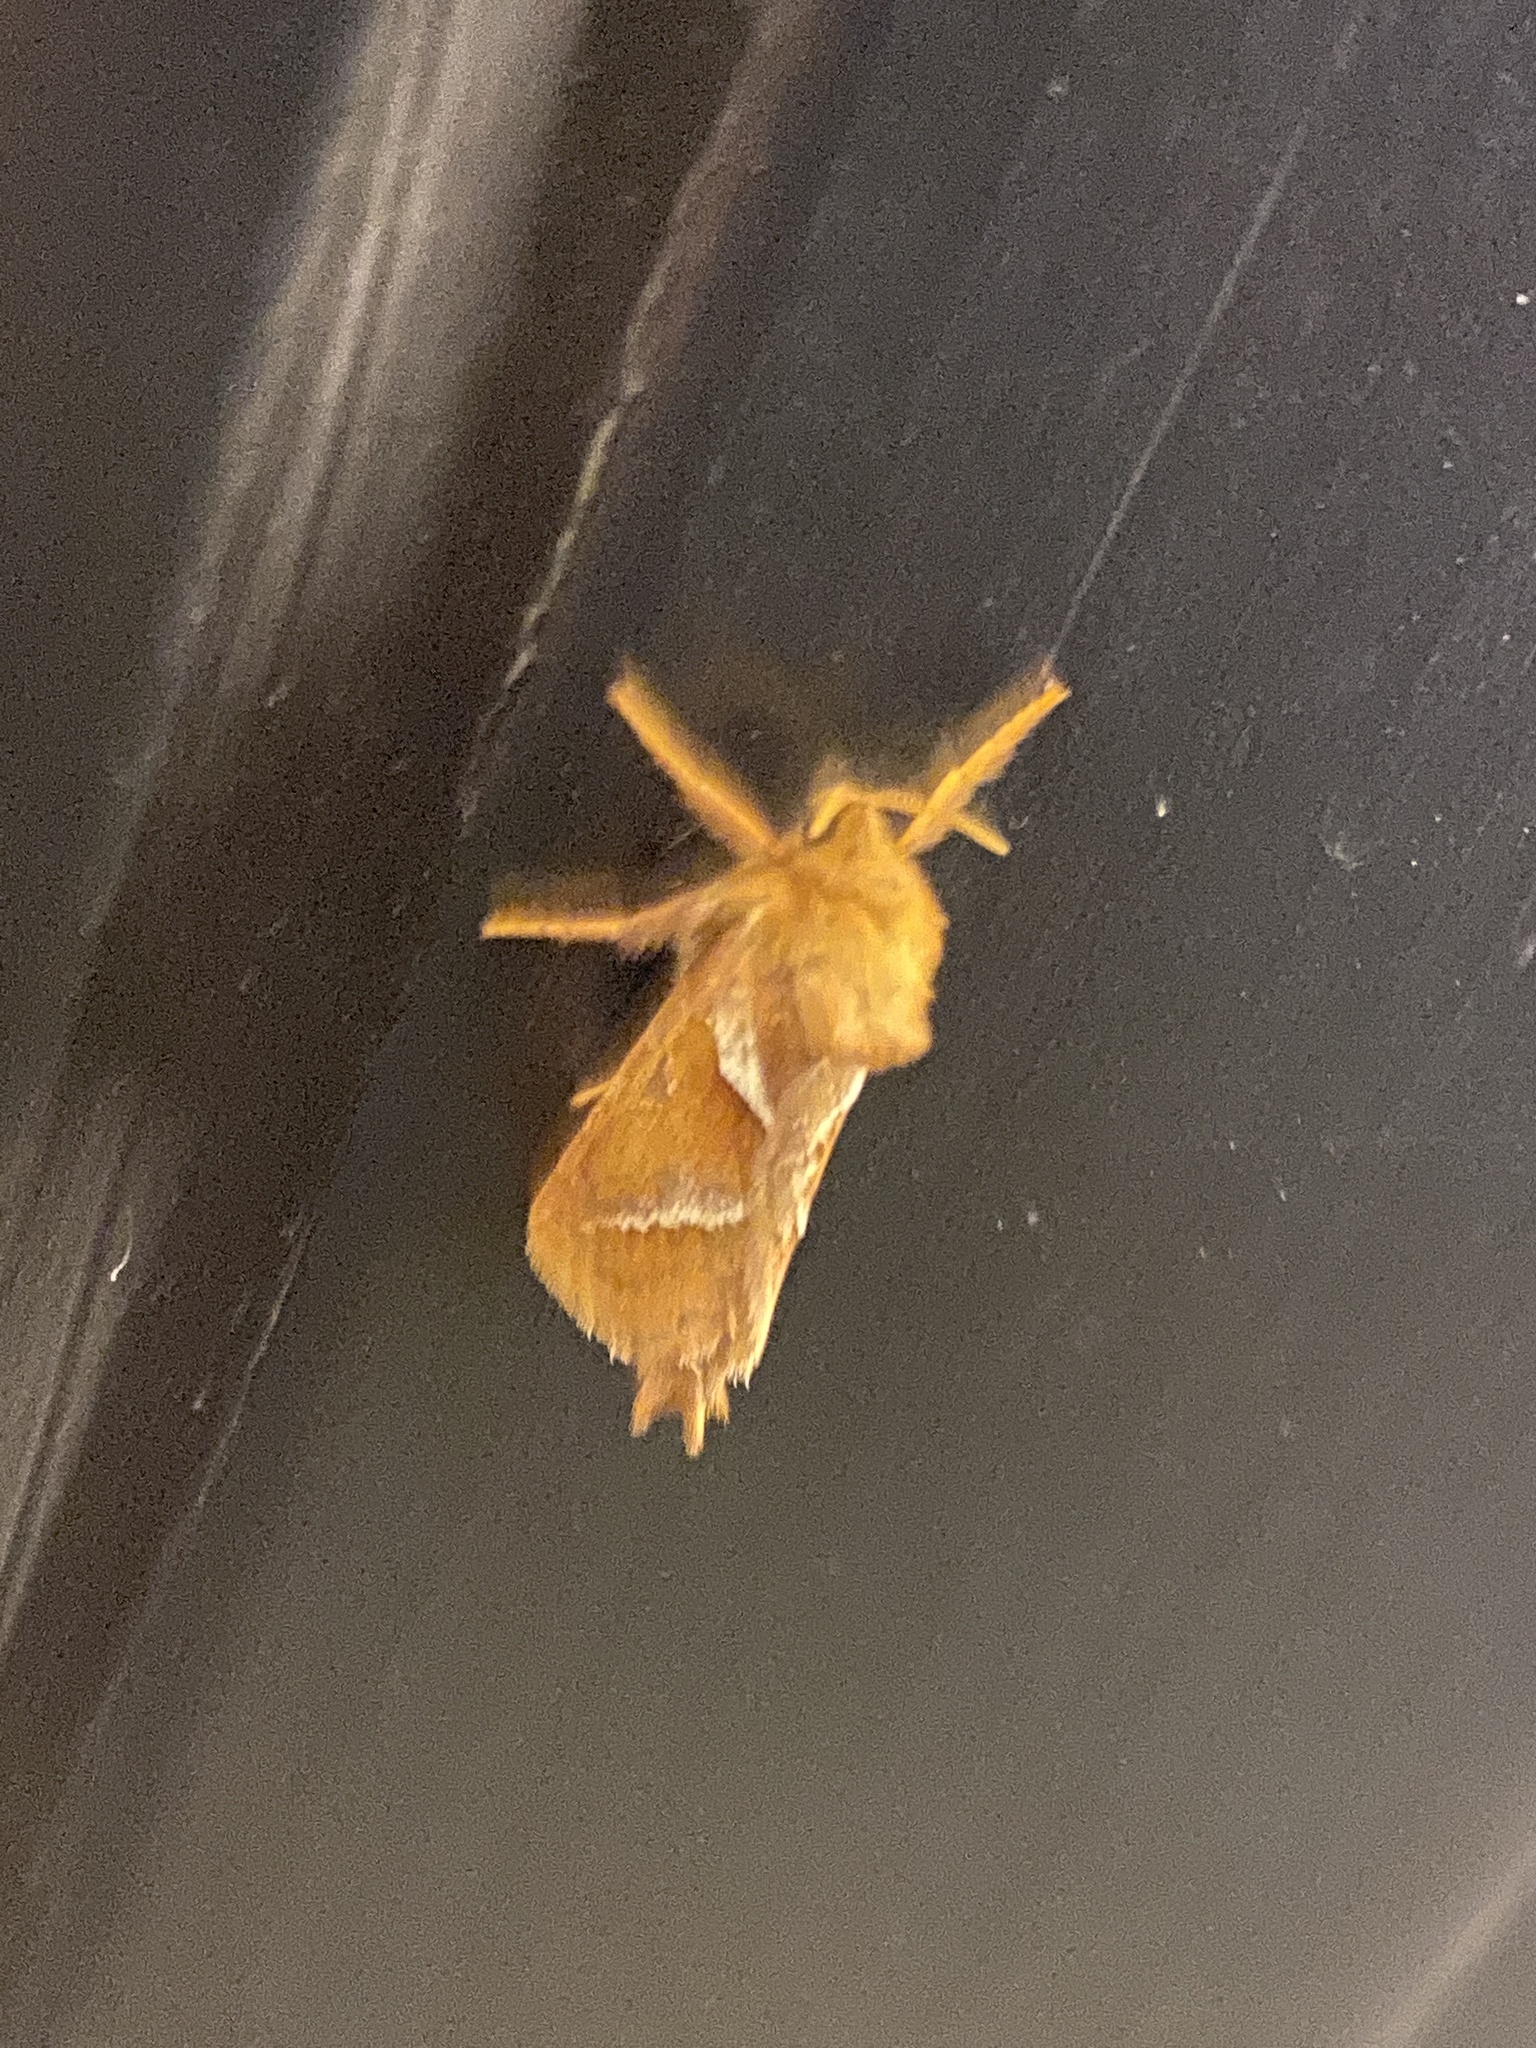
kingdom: Animalia
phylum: Arthropoda
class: Insecta
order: Lepidoptera
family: Hepialidae
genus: Triodia
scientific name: Triodia sylvina
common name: Orange swift
